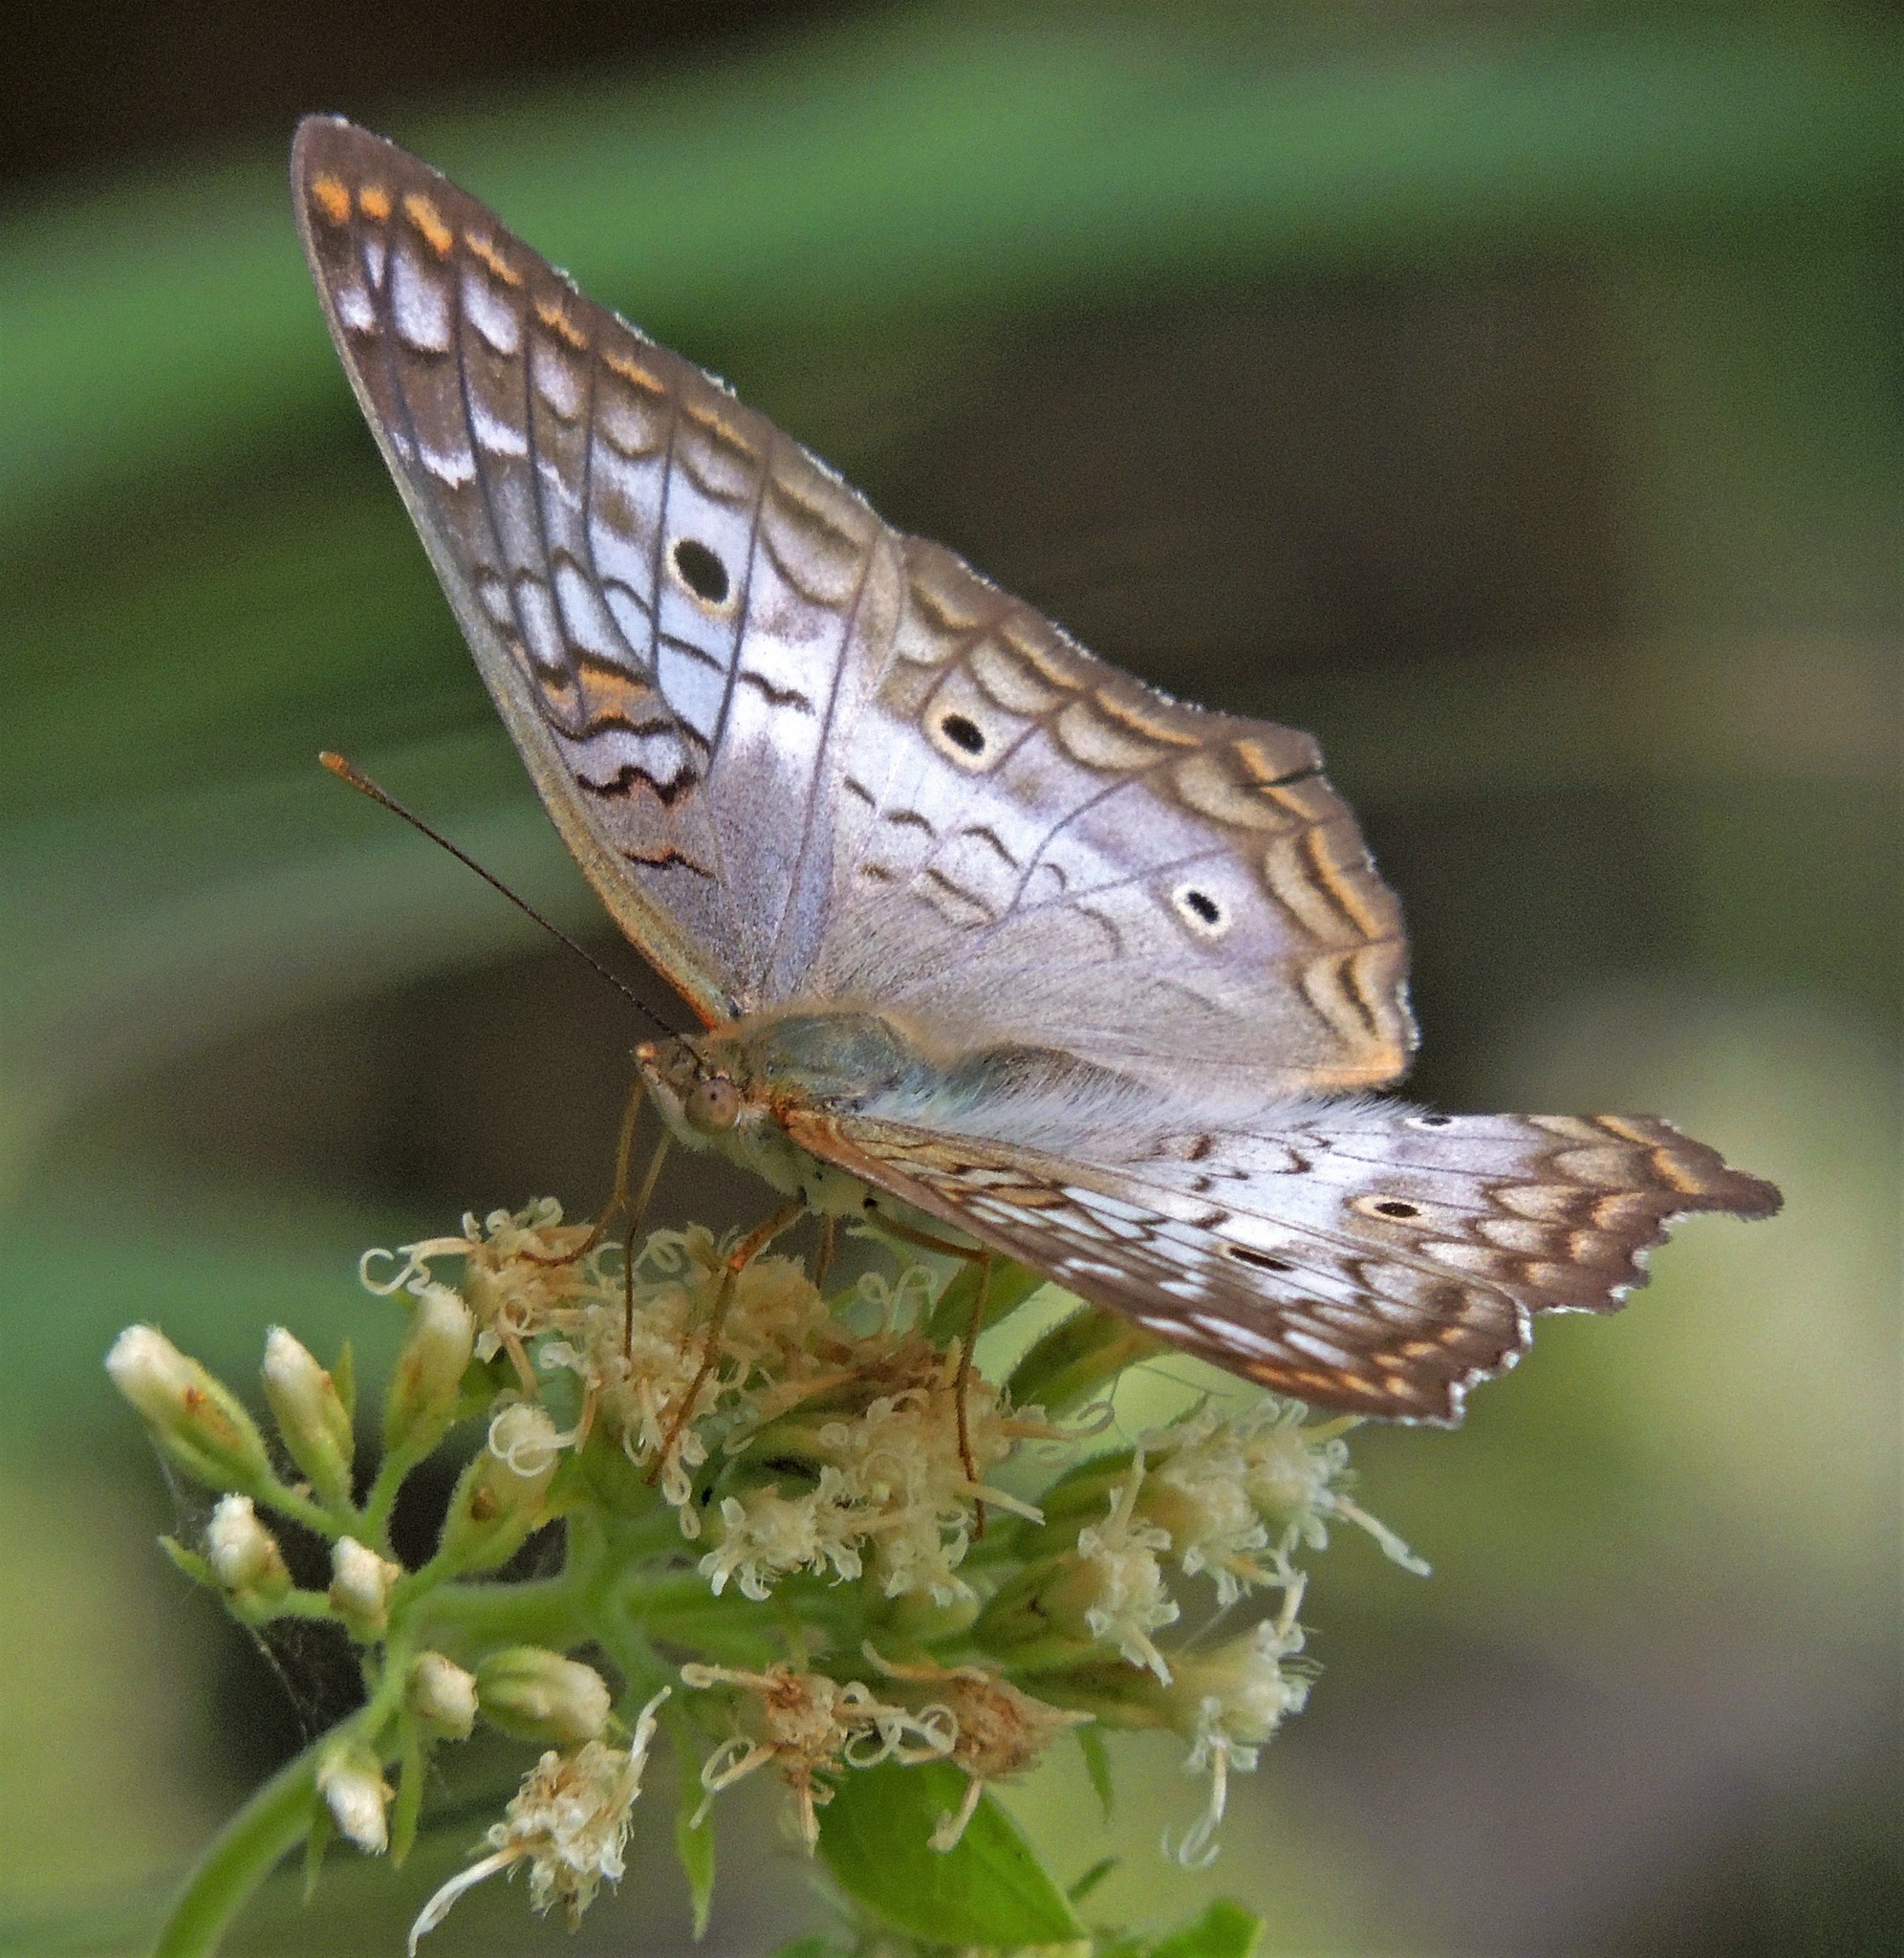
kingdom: Animalia
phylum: Arthropoda
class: Insecta
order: Lepidoptera
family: Nymphalidae
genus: Anartia
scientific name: Anartia jatrophae
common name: White peacock
